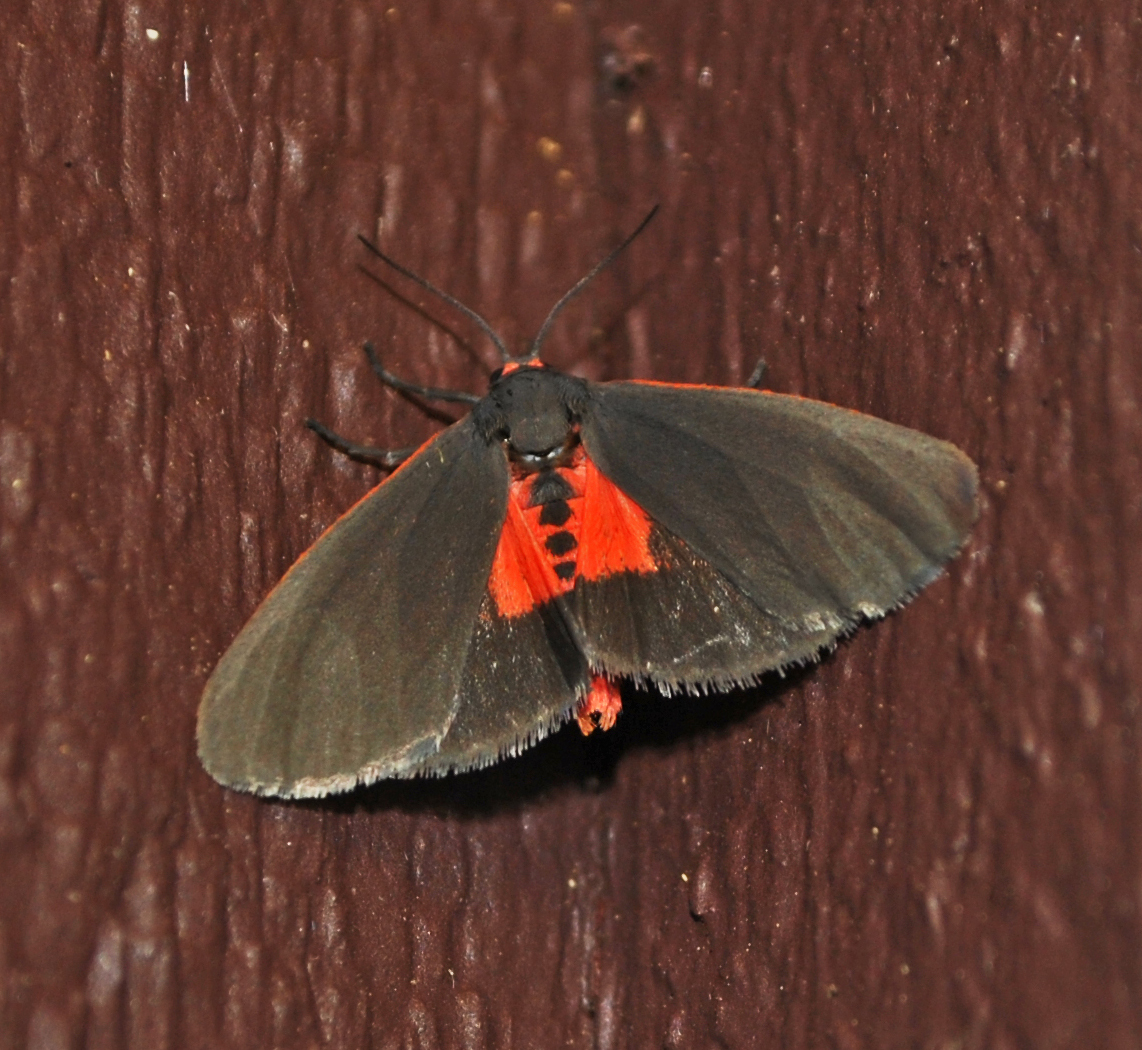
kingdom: Animalia
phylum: Arthropoda
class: Insecta
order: Lepidoptera
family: Erebidae
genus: Virbia
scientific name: Virbia laeta
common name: Joyful holomelina moth
